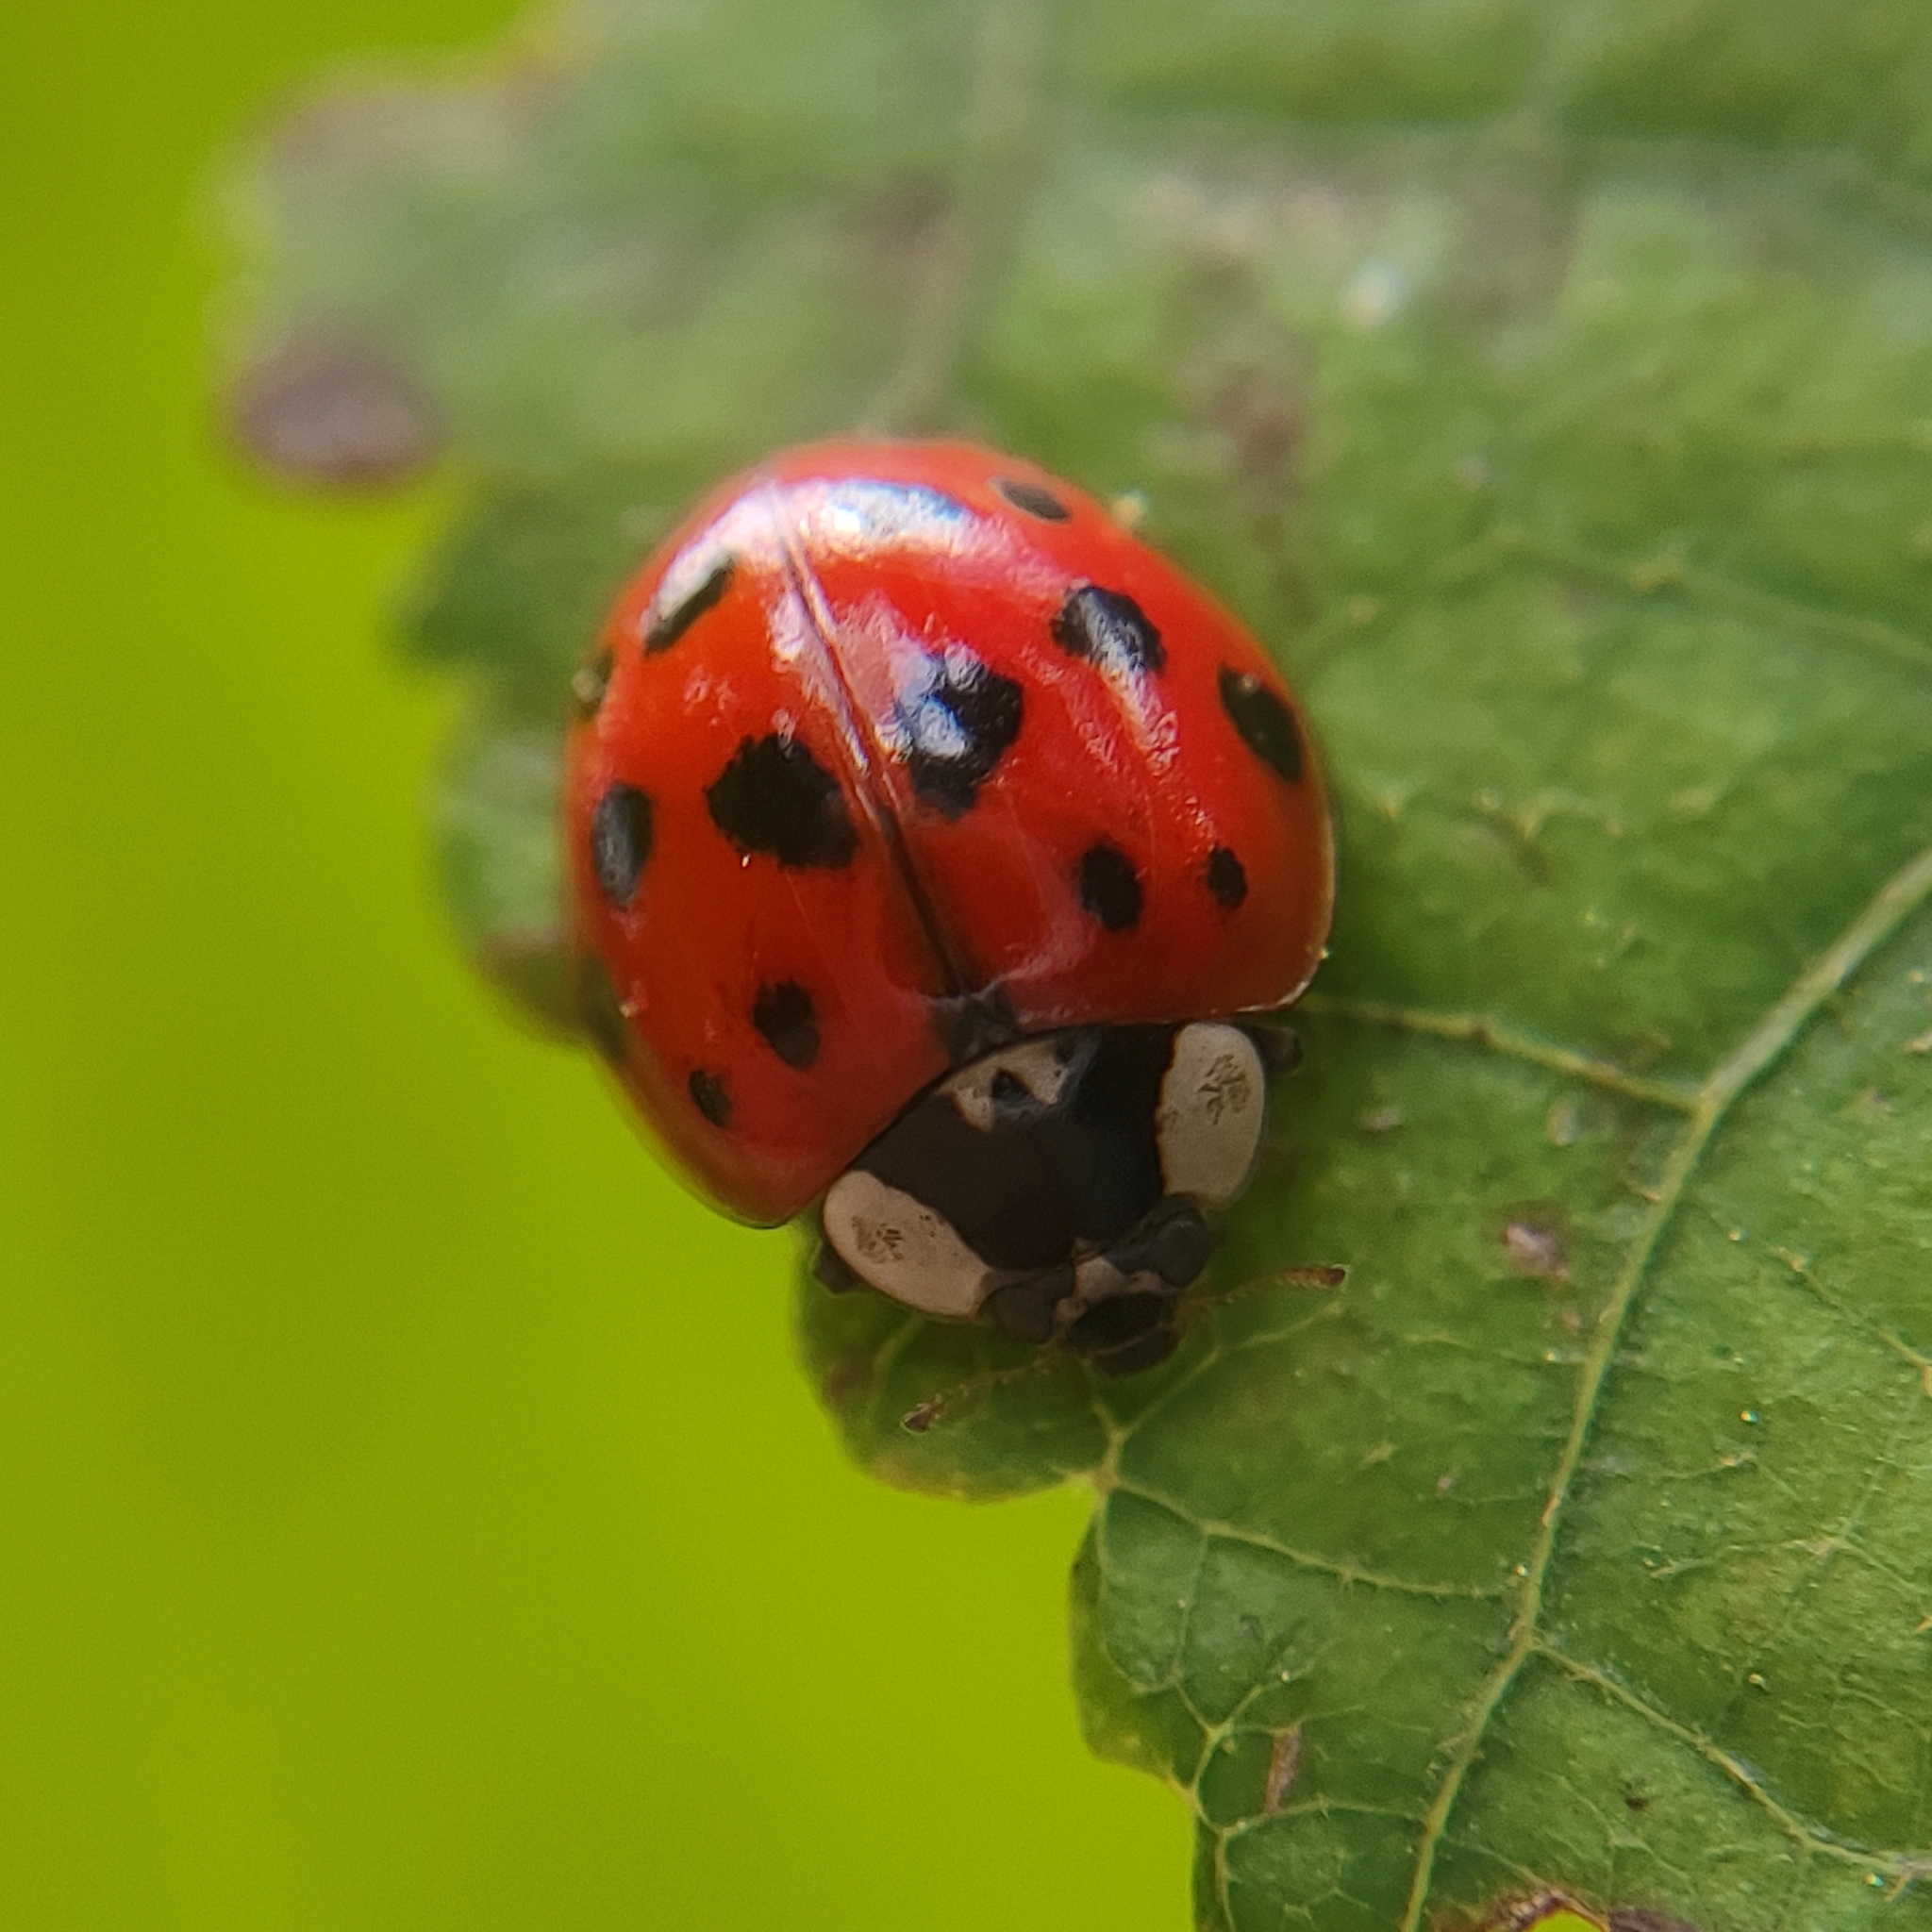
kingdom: Animalia
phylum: Arthropoda
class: Insecta
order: Coleoptera
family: Coccinellidae
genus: Harmonia
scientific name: Harmonia axyridis
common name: Harlequin ladybird
